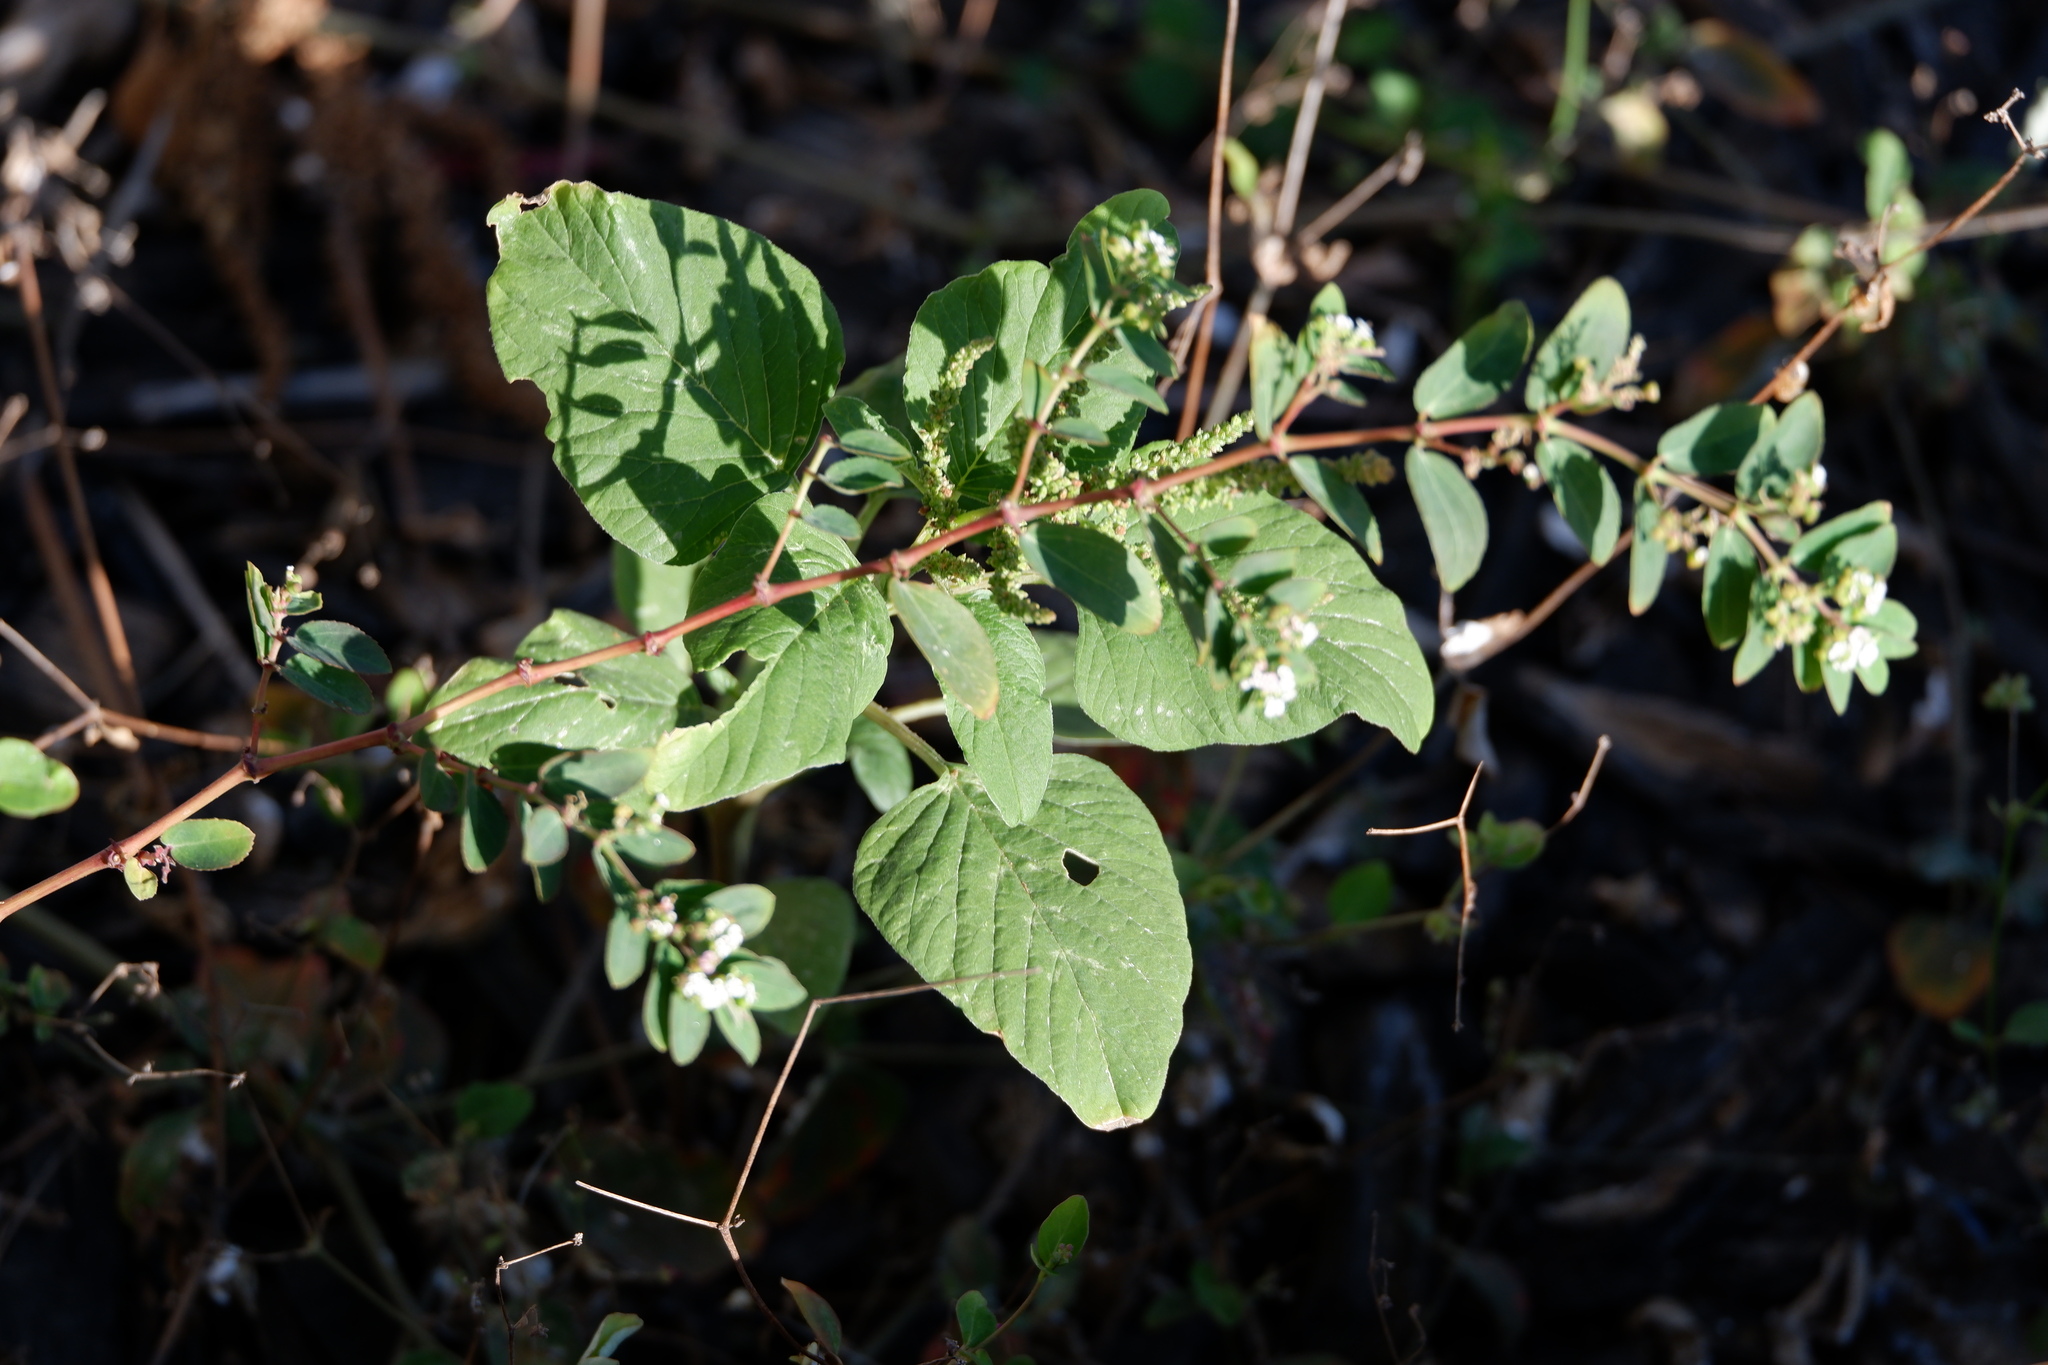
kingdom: Plantae
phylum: Tracheophyta
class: Magnoliopsida
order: Malpighiales
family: Euphorbiaceae
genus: Euphorbia
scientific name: Euphorbia hypericifolia
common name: Graceful sandmat
